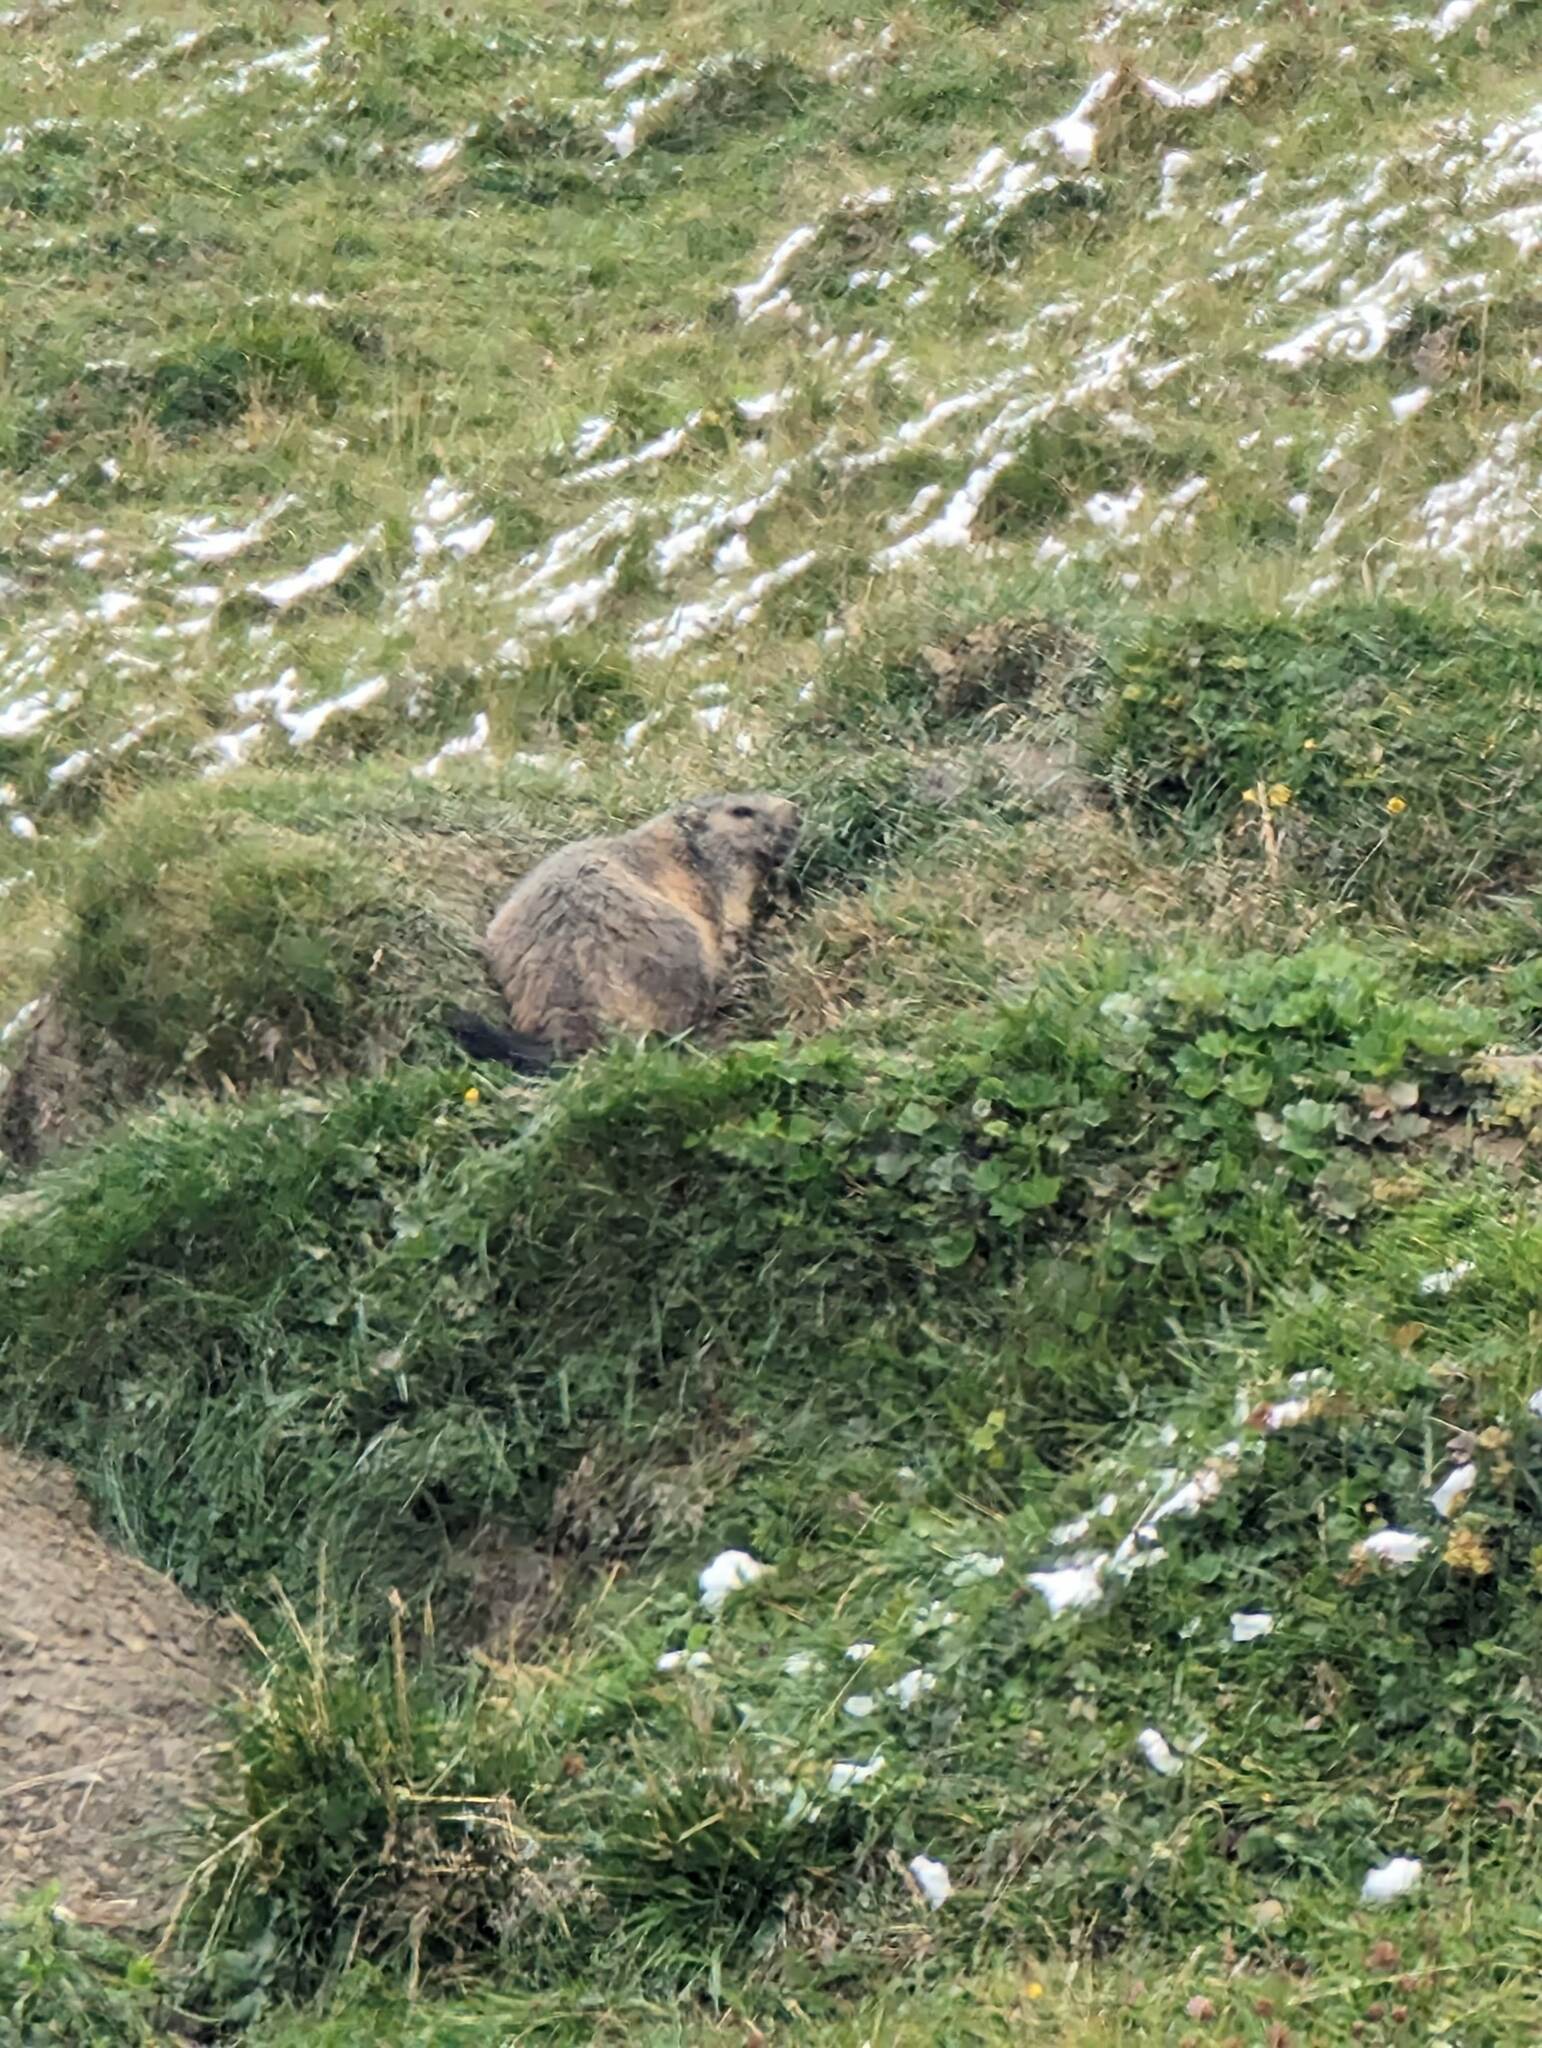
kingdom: Animalia
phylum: Chordata
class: Mammalia
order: Rodentia
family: Sciuridae
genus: Marmota
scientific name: Marmota marmota
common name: Alpine marmot
